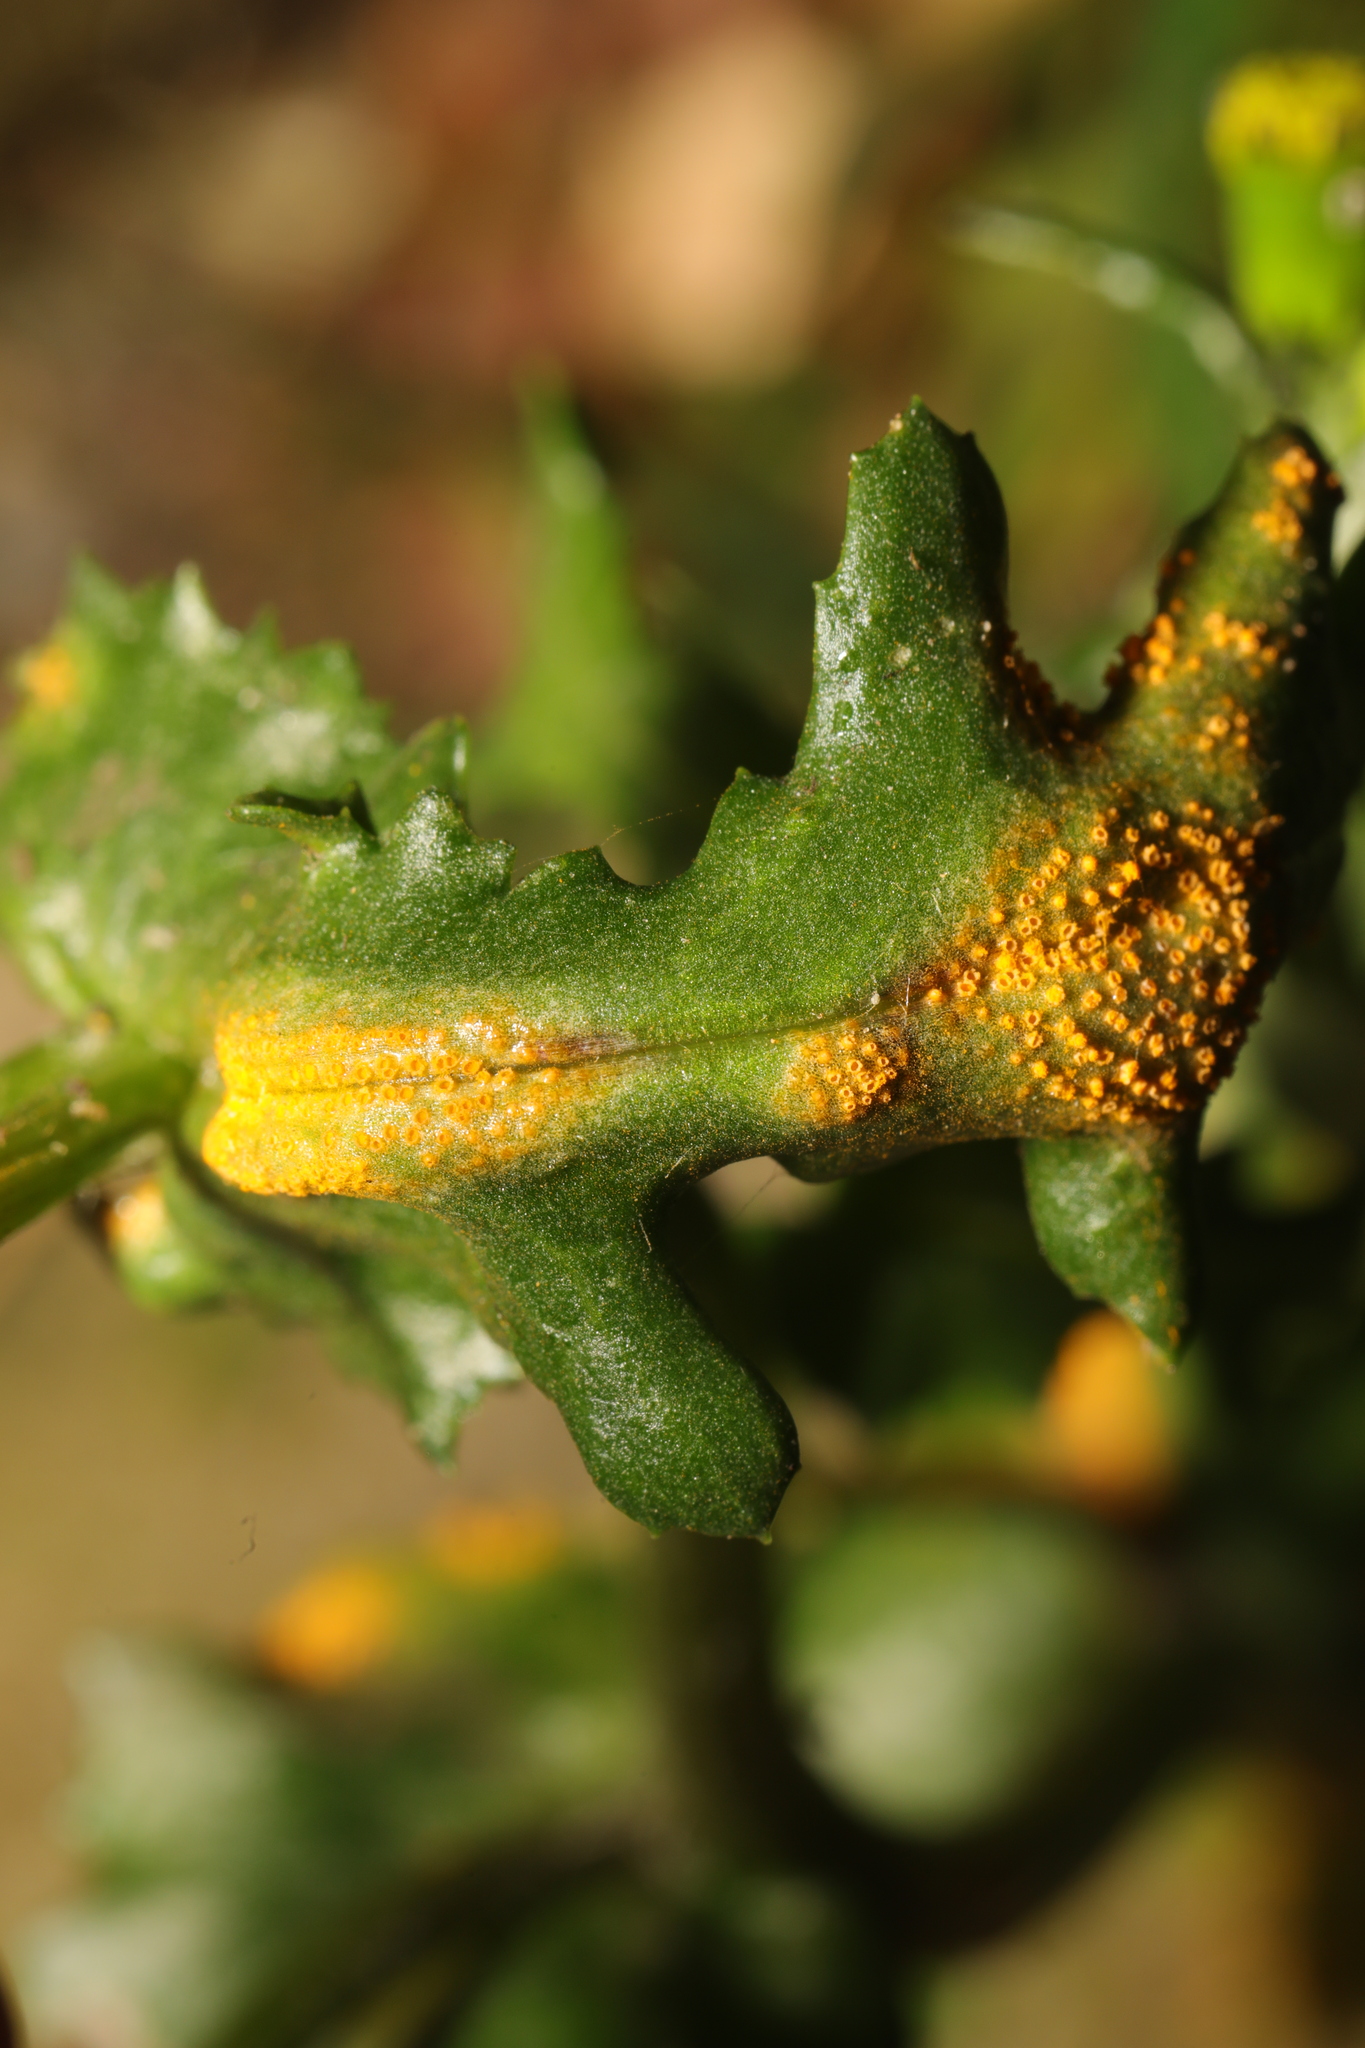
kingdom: Fungi
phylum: Basidiomycota
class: Pucciniomycetes
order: Pucciniales
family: Pucciniaceae
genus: Puccinia
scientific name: Puccinia lagenophorae
